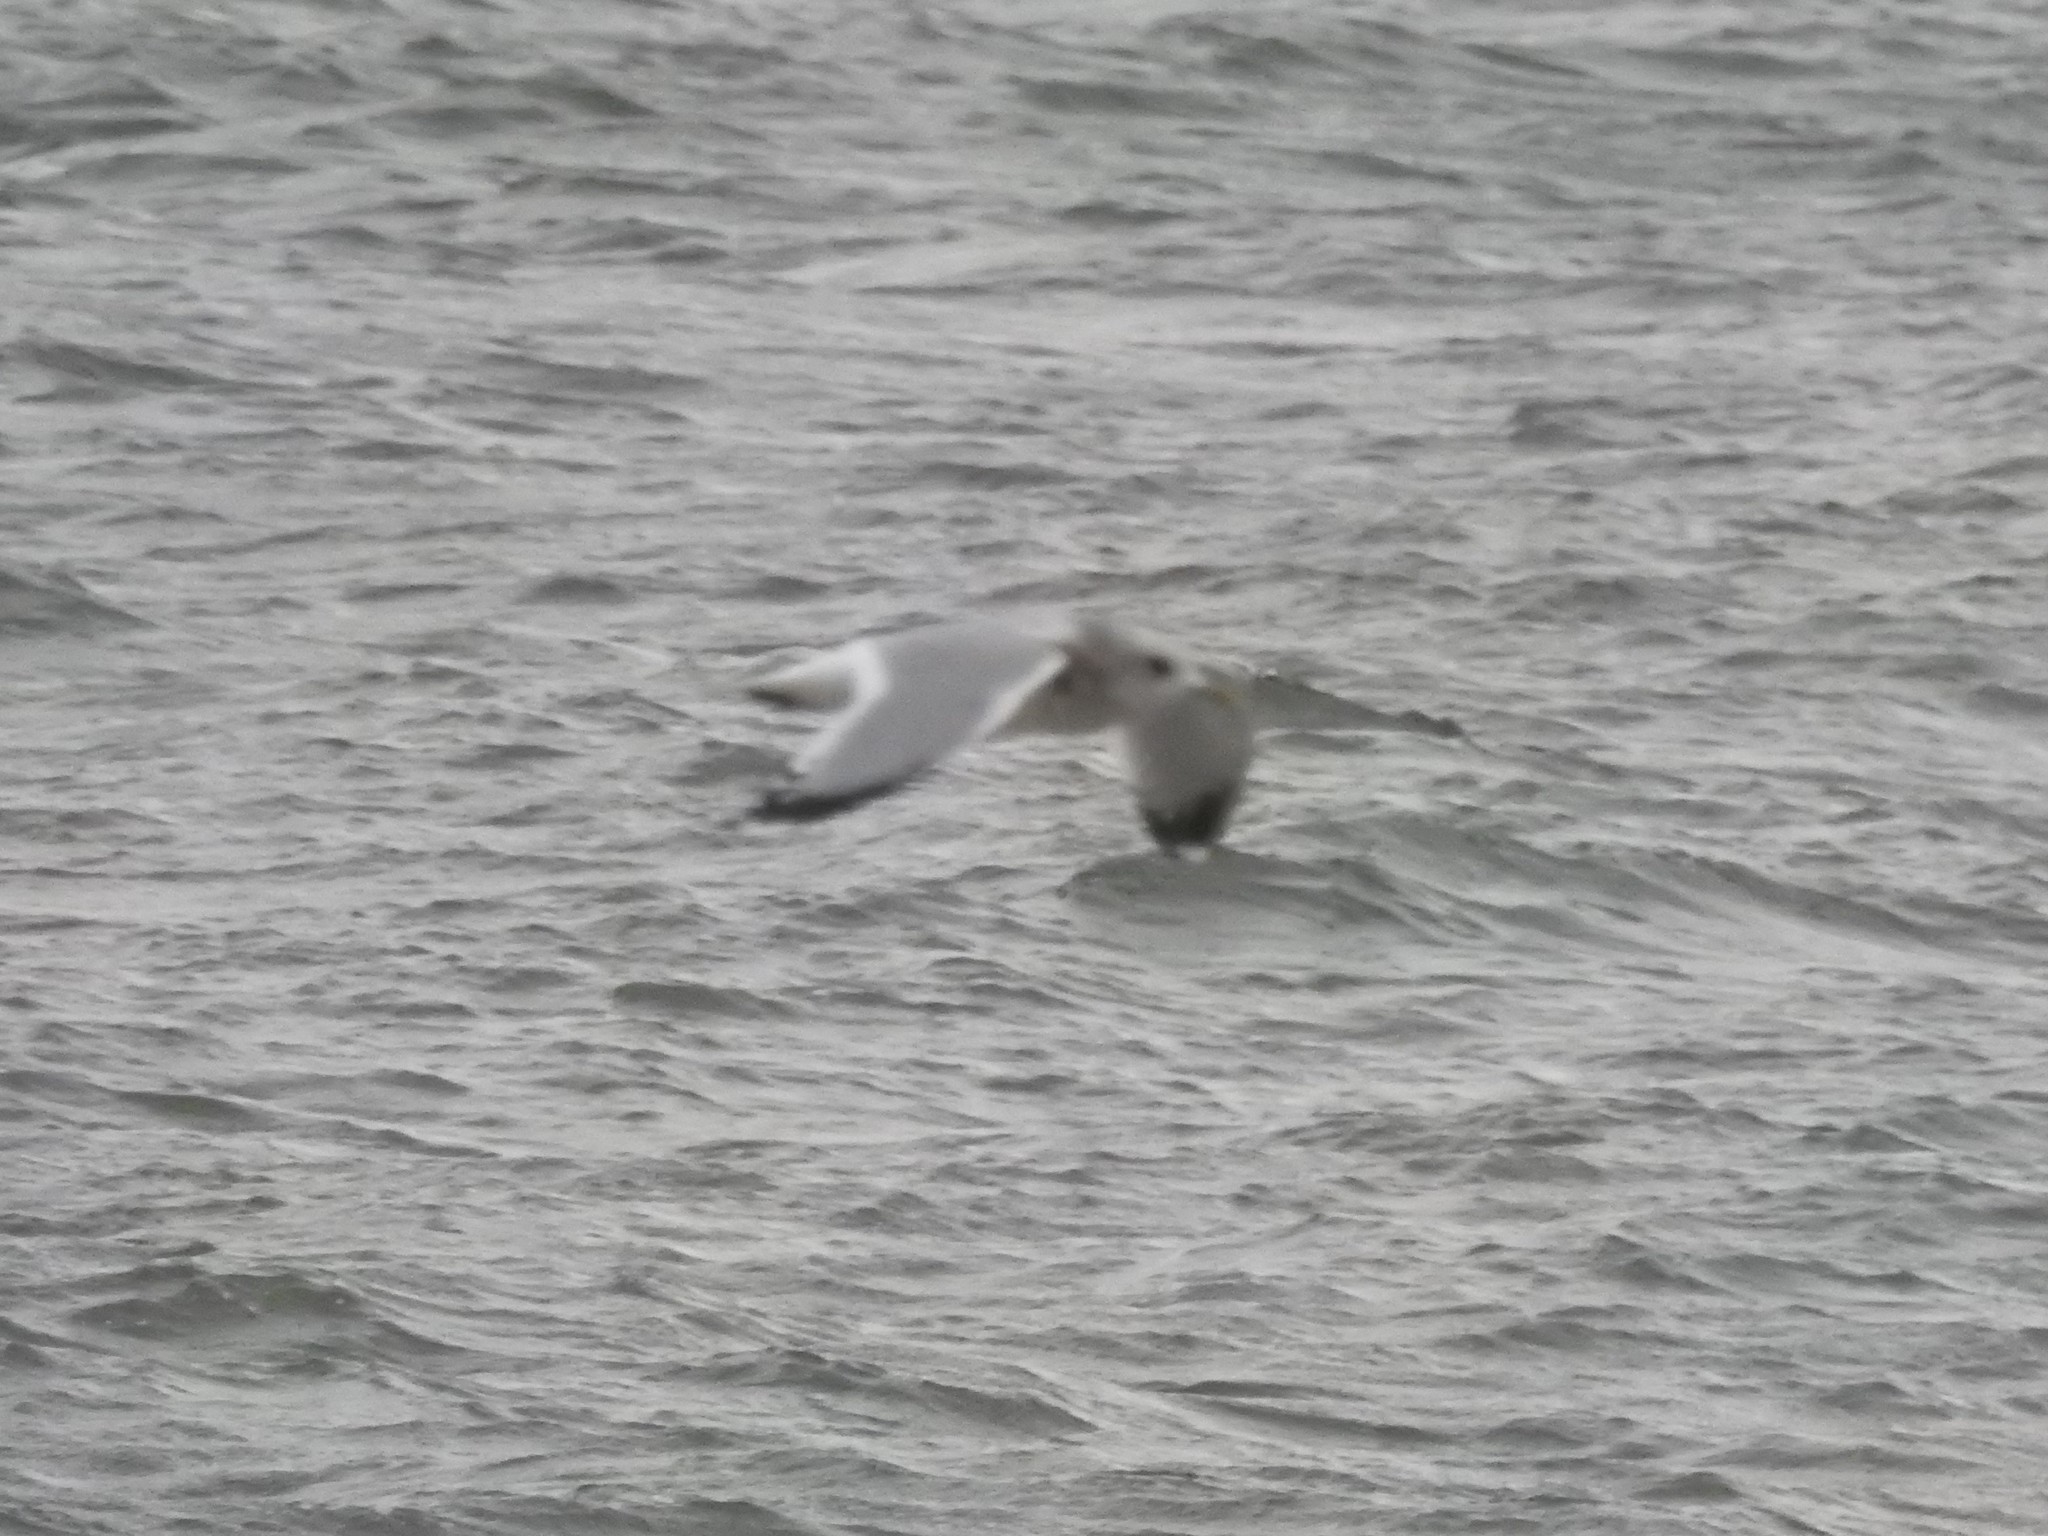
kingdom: Animalia
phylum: Chordata
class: Aves
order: Charadriiformes
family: Laridae
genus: Larus
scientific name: Larus brachyrhynchus
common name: Short-billed gull
